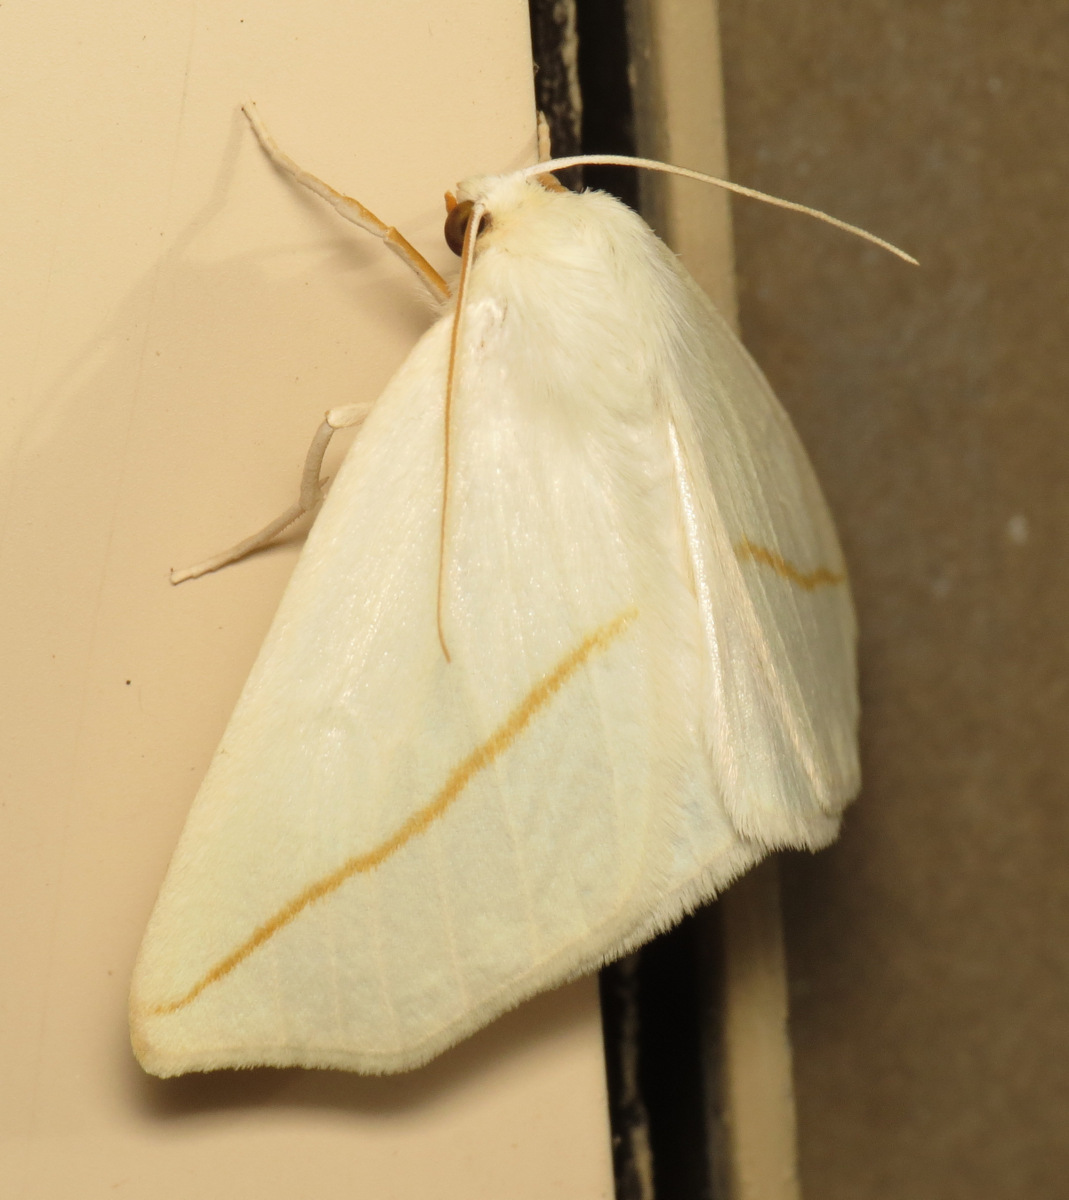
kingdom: Animalia
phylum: Arthropoda
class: Insecta
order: Lepidoptera
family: Geometridae
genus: Tetracis
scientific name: Tetracis cachexiata
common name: White slant-line
